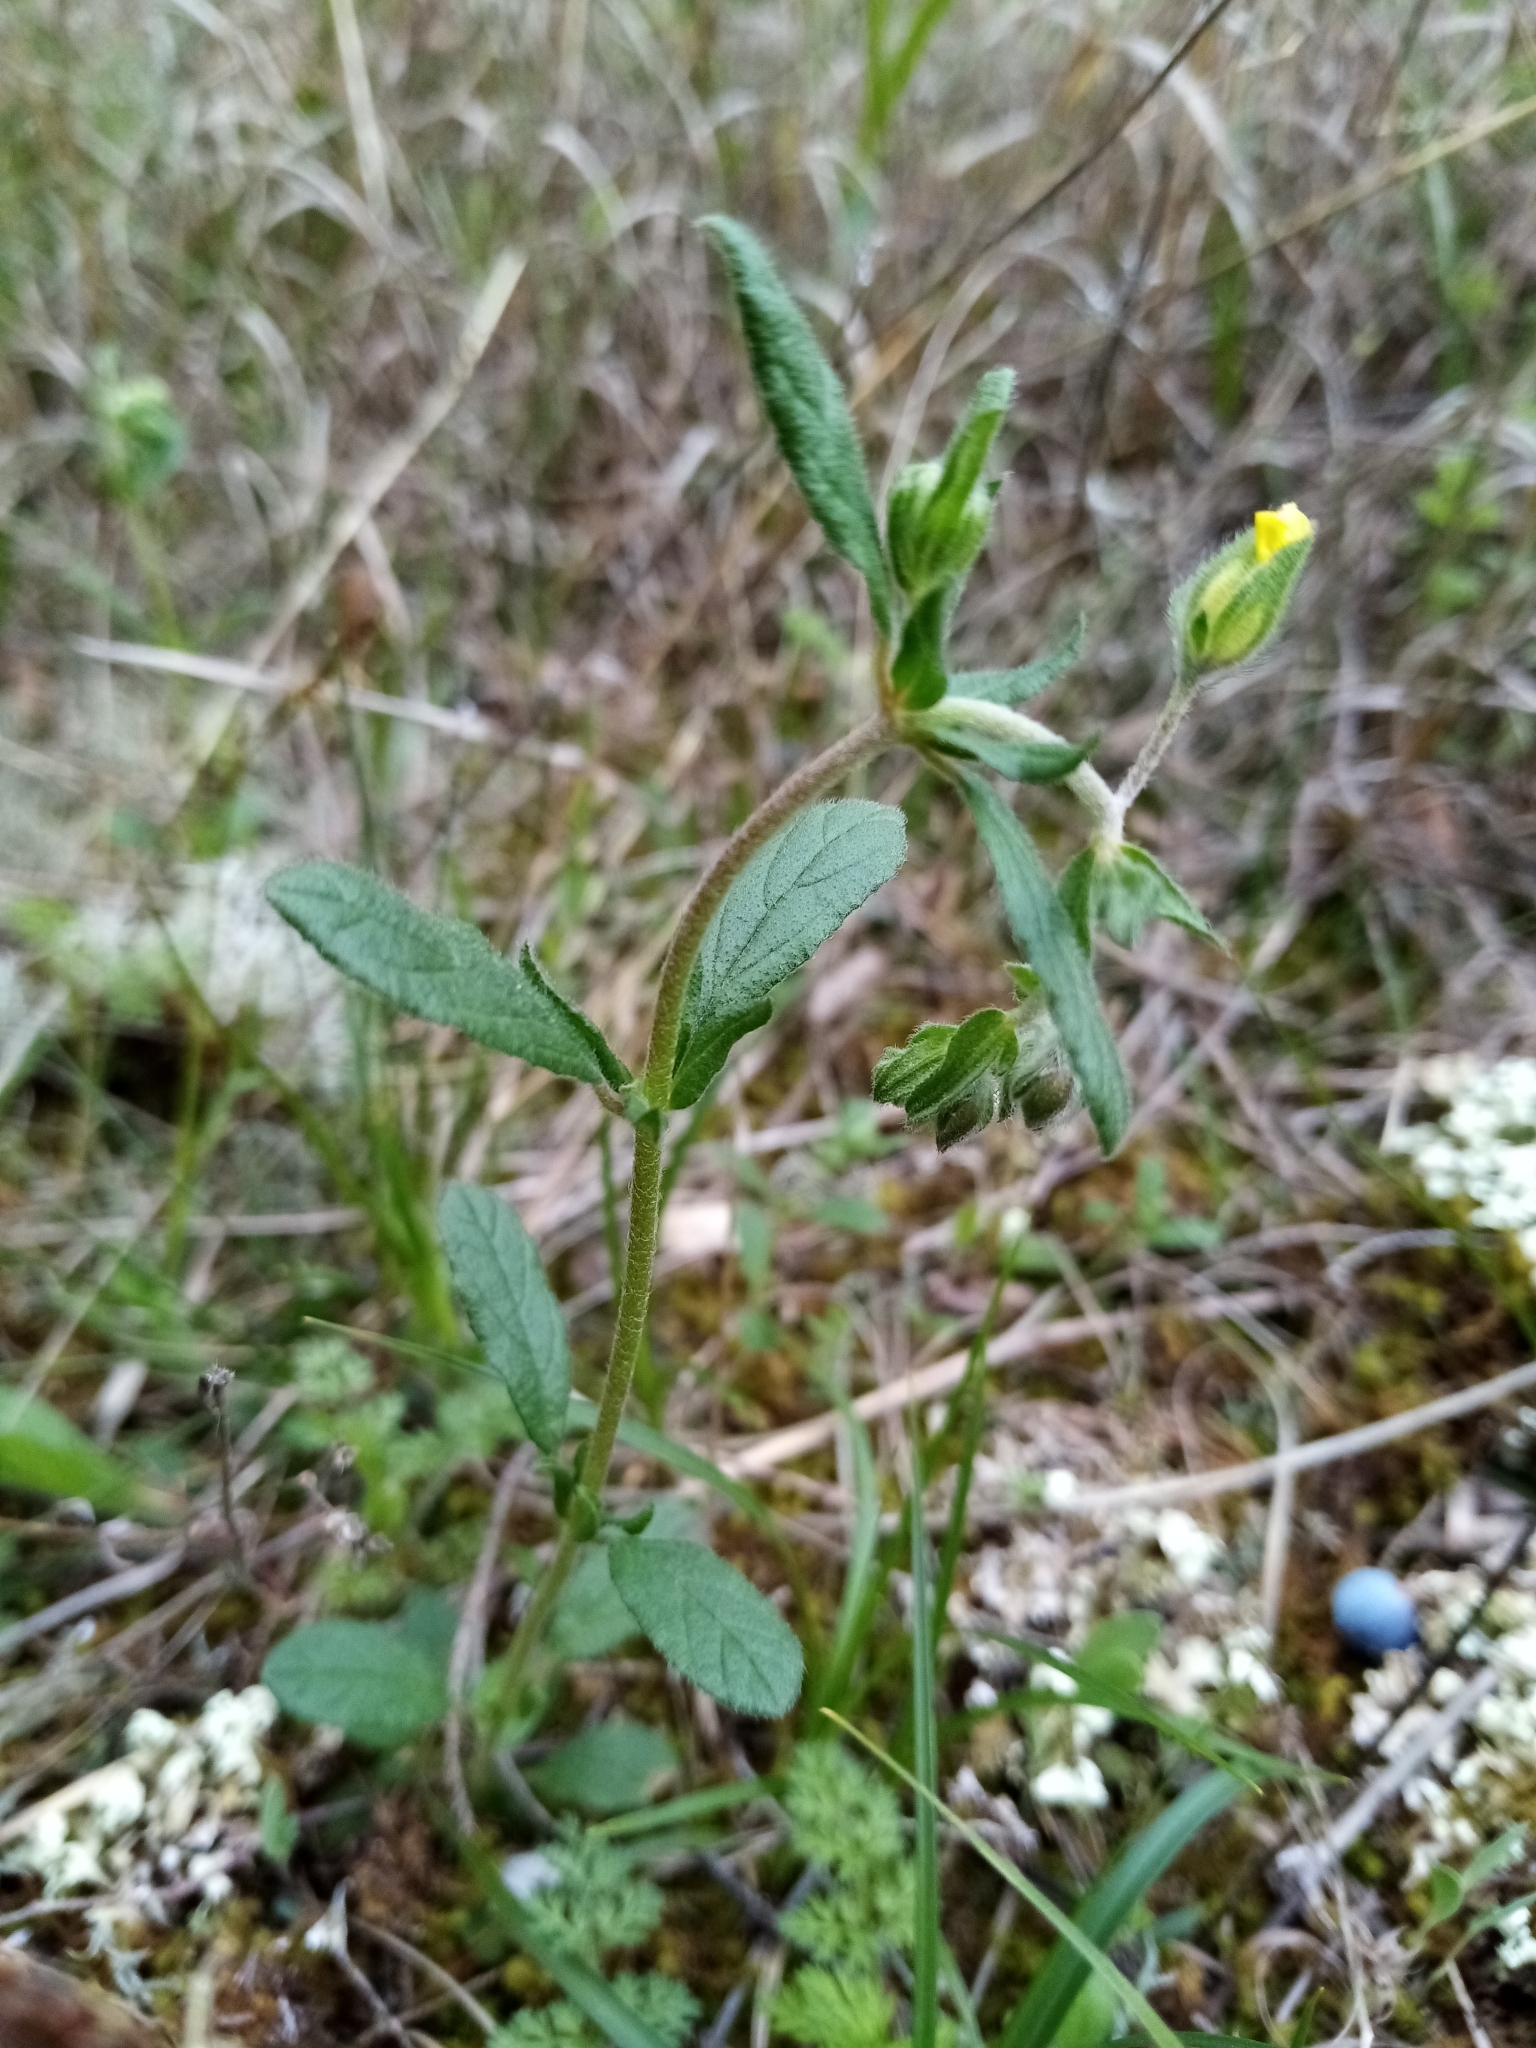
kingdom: Plantae
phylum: Tracheophyta
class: Magnoliopsida
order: Malvales
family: Cistaceae
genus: Helianthemum
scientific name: Helianthemum salicifolium
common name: Willowleaf frostweed
